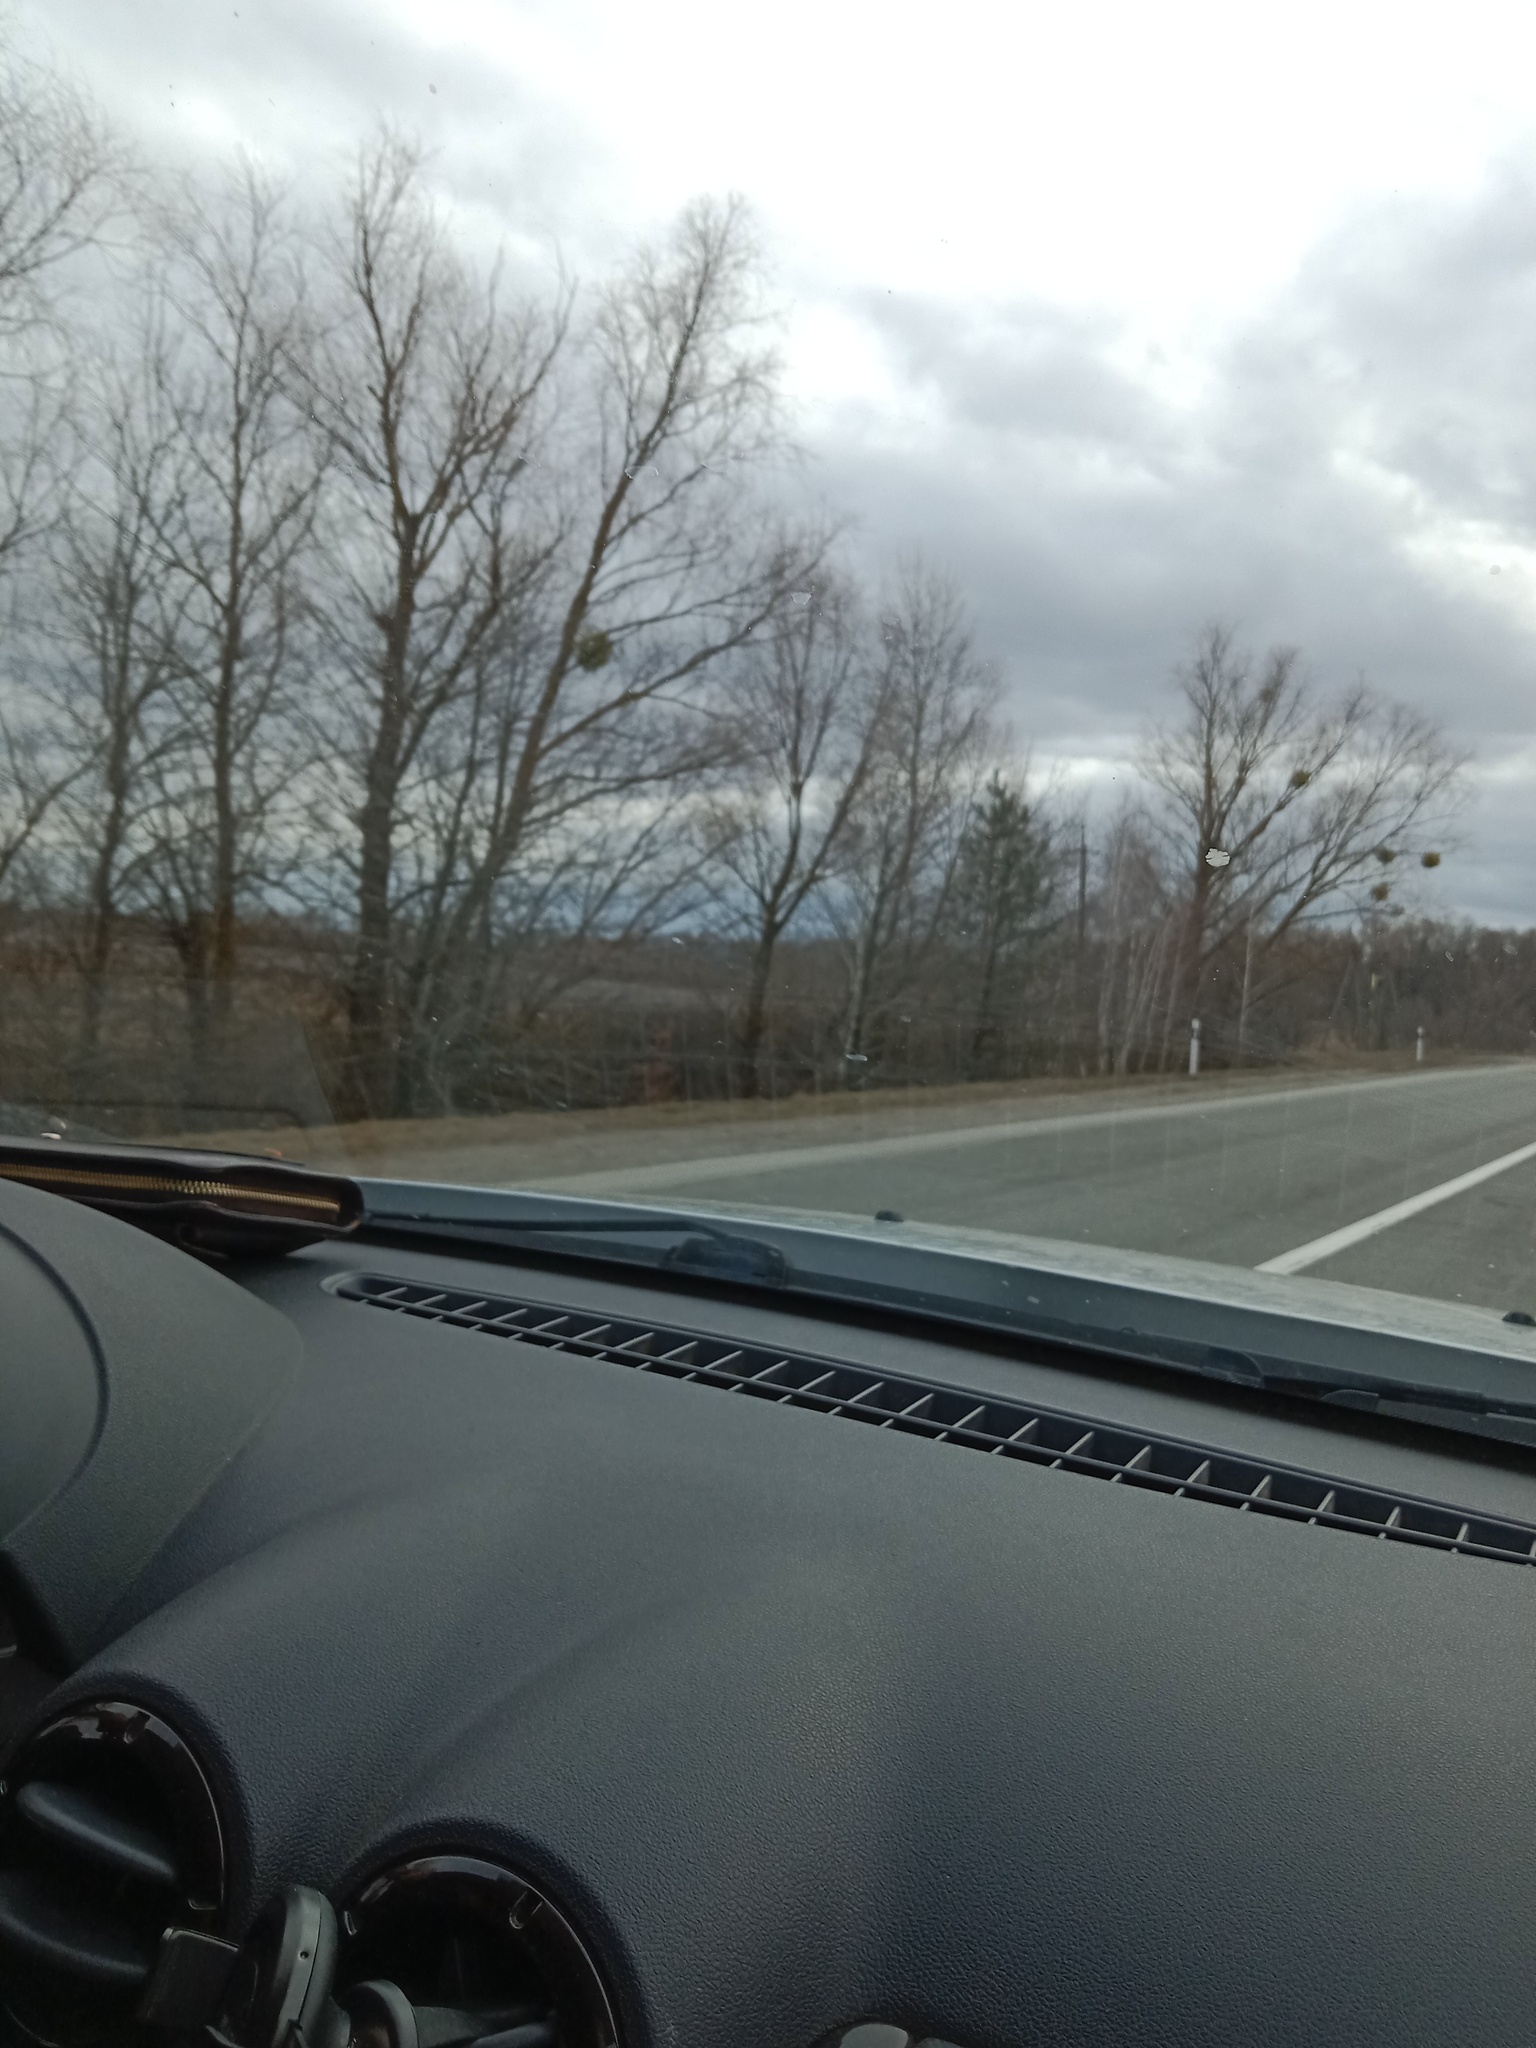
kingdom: Plantae
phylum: Tracheophyta
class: Magnoliopsida
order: Santalales
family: Viscaceae
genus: Viscum
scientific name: Viscum album
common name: Mistletoe
